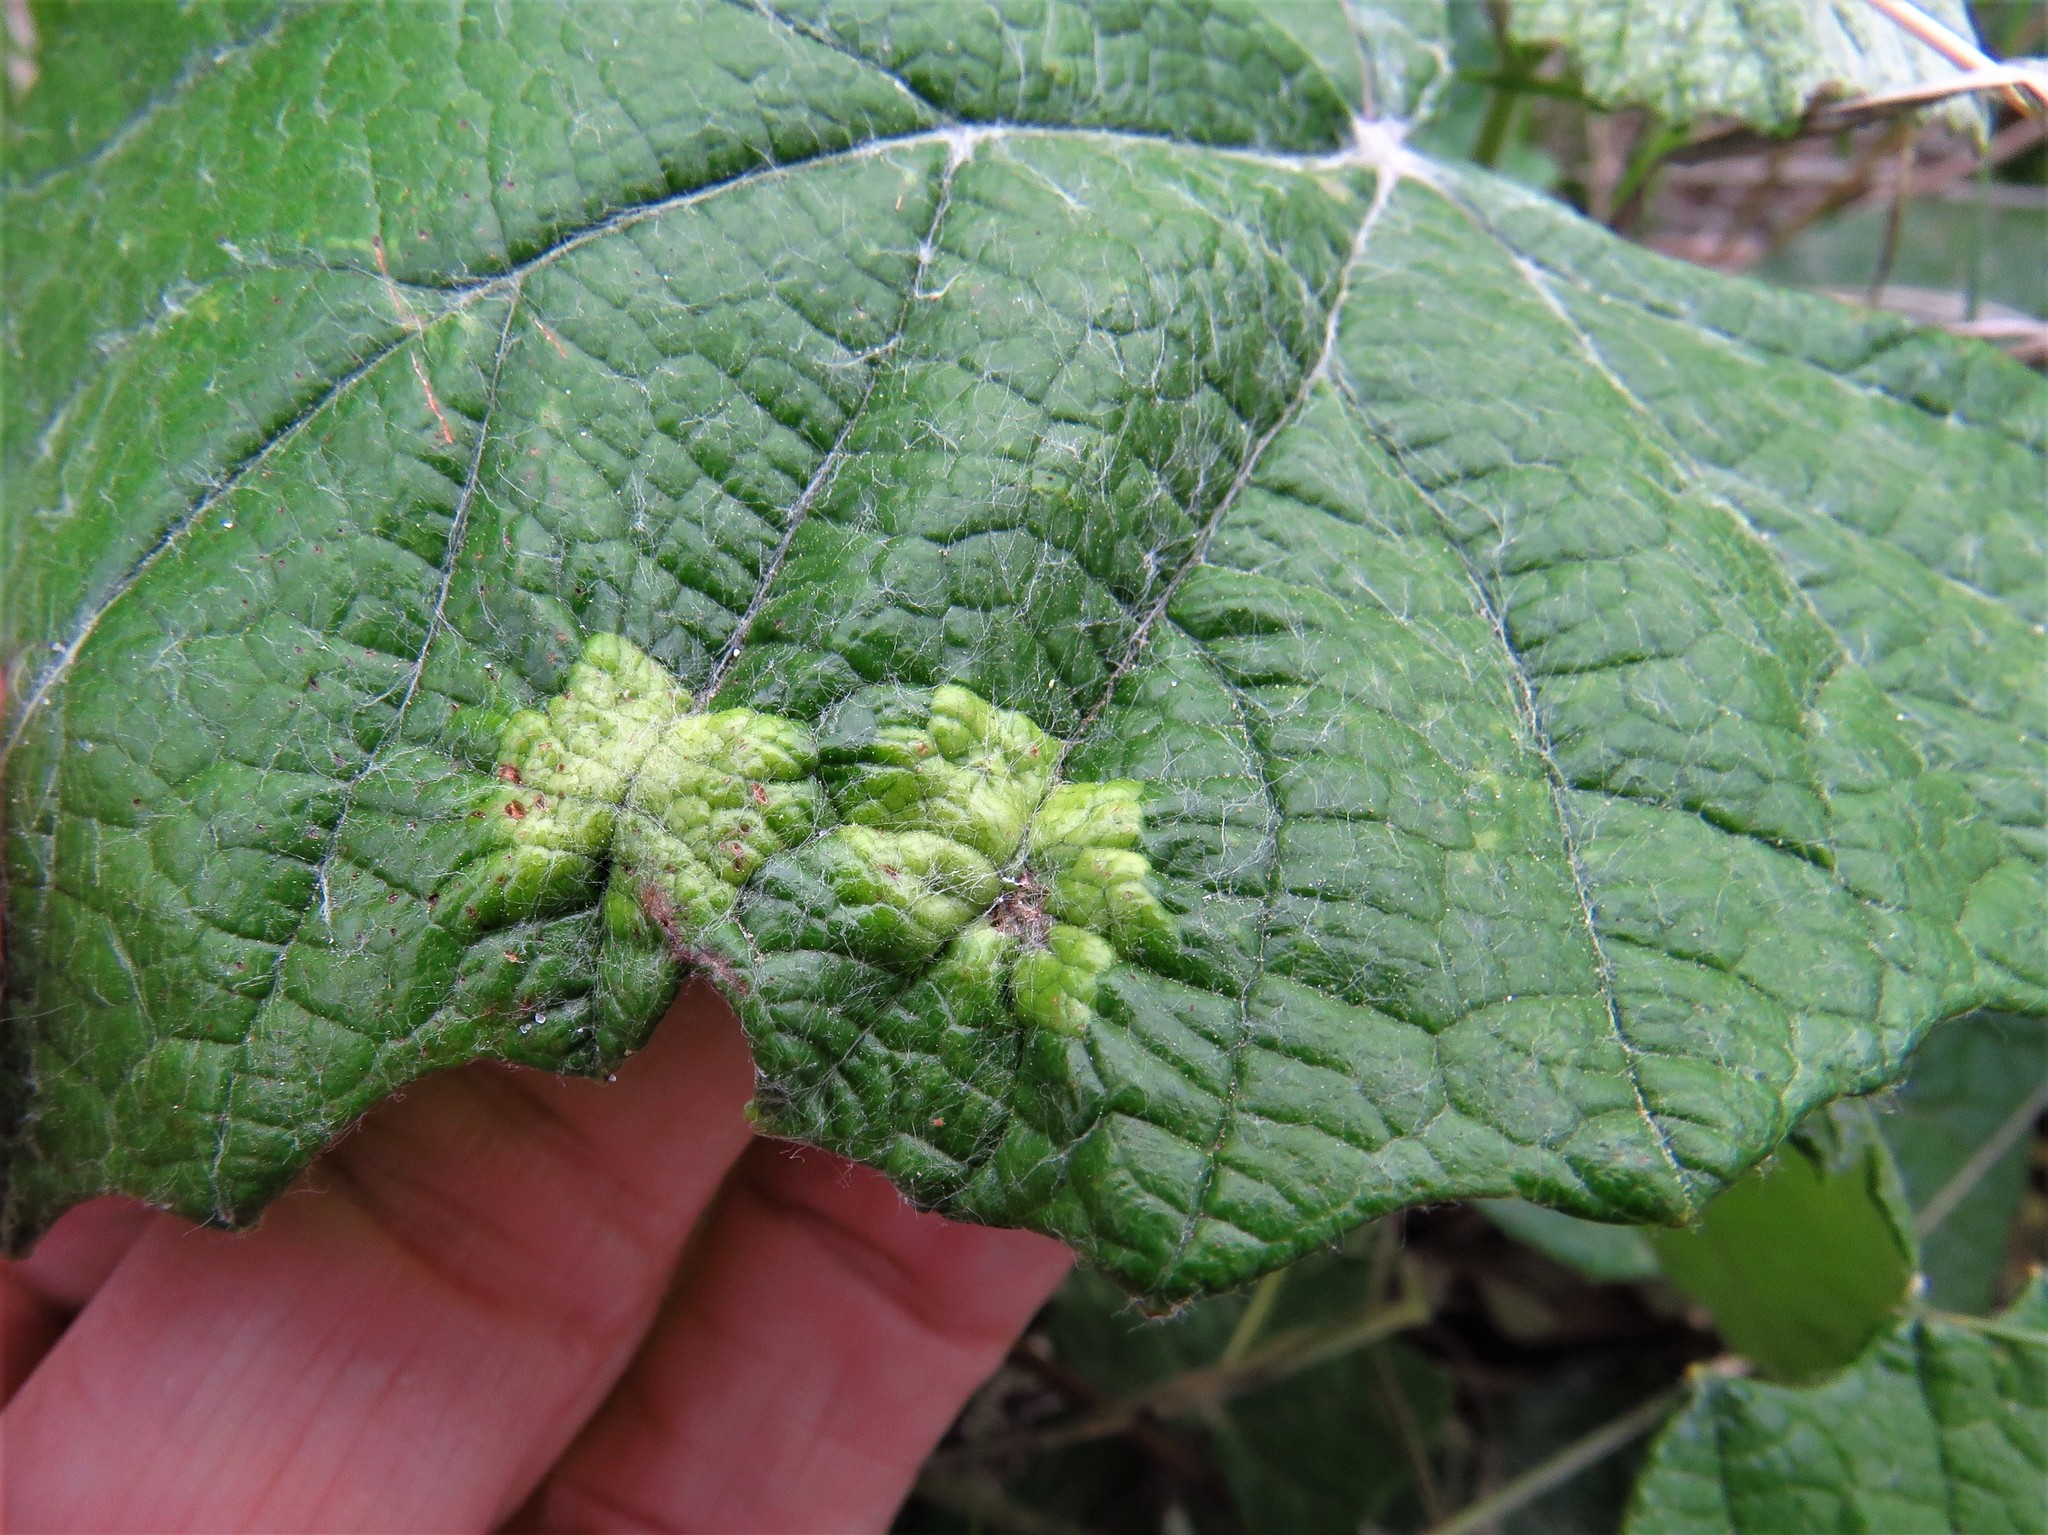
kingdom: Animalia
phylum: Arthropoda
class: Insecta
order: Lepidoptera
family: Heliozelidae
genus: Heliozela
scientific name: Heliozela aesella
